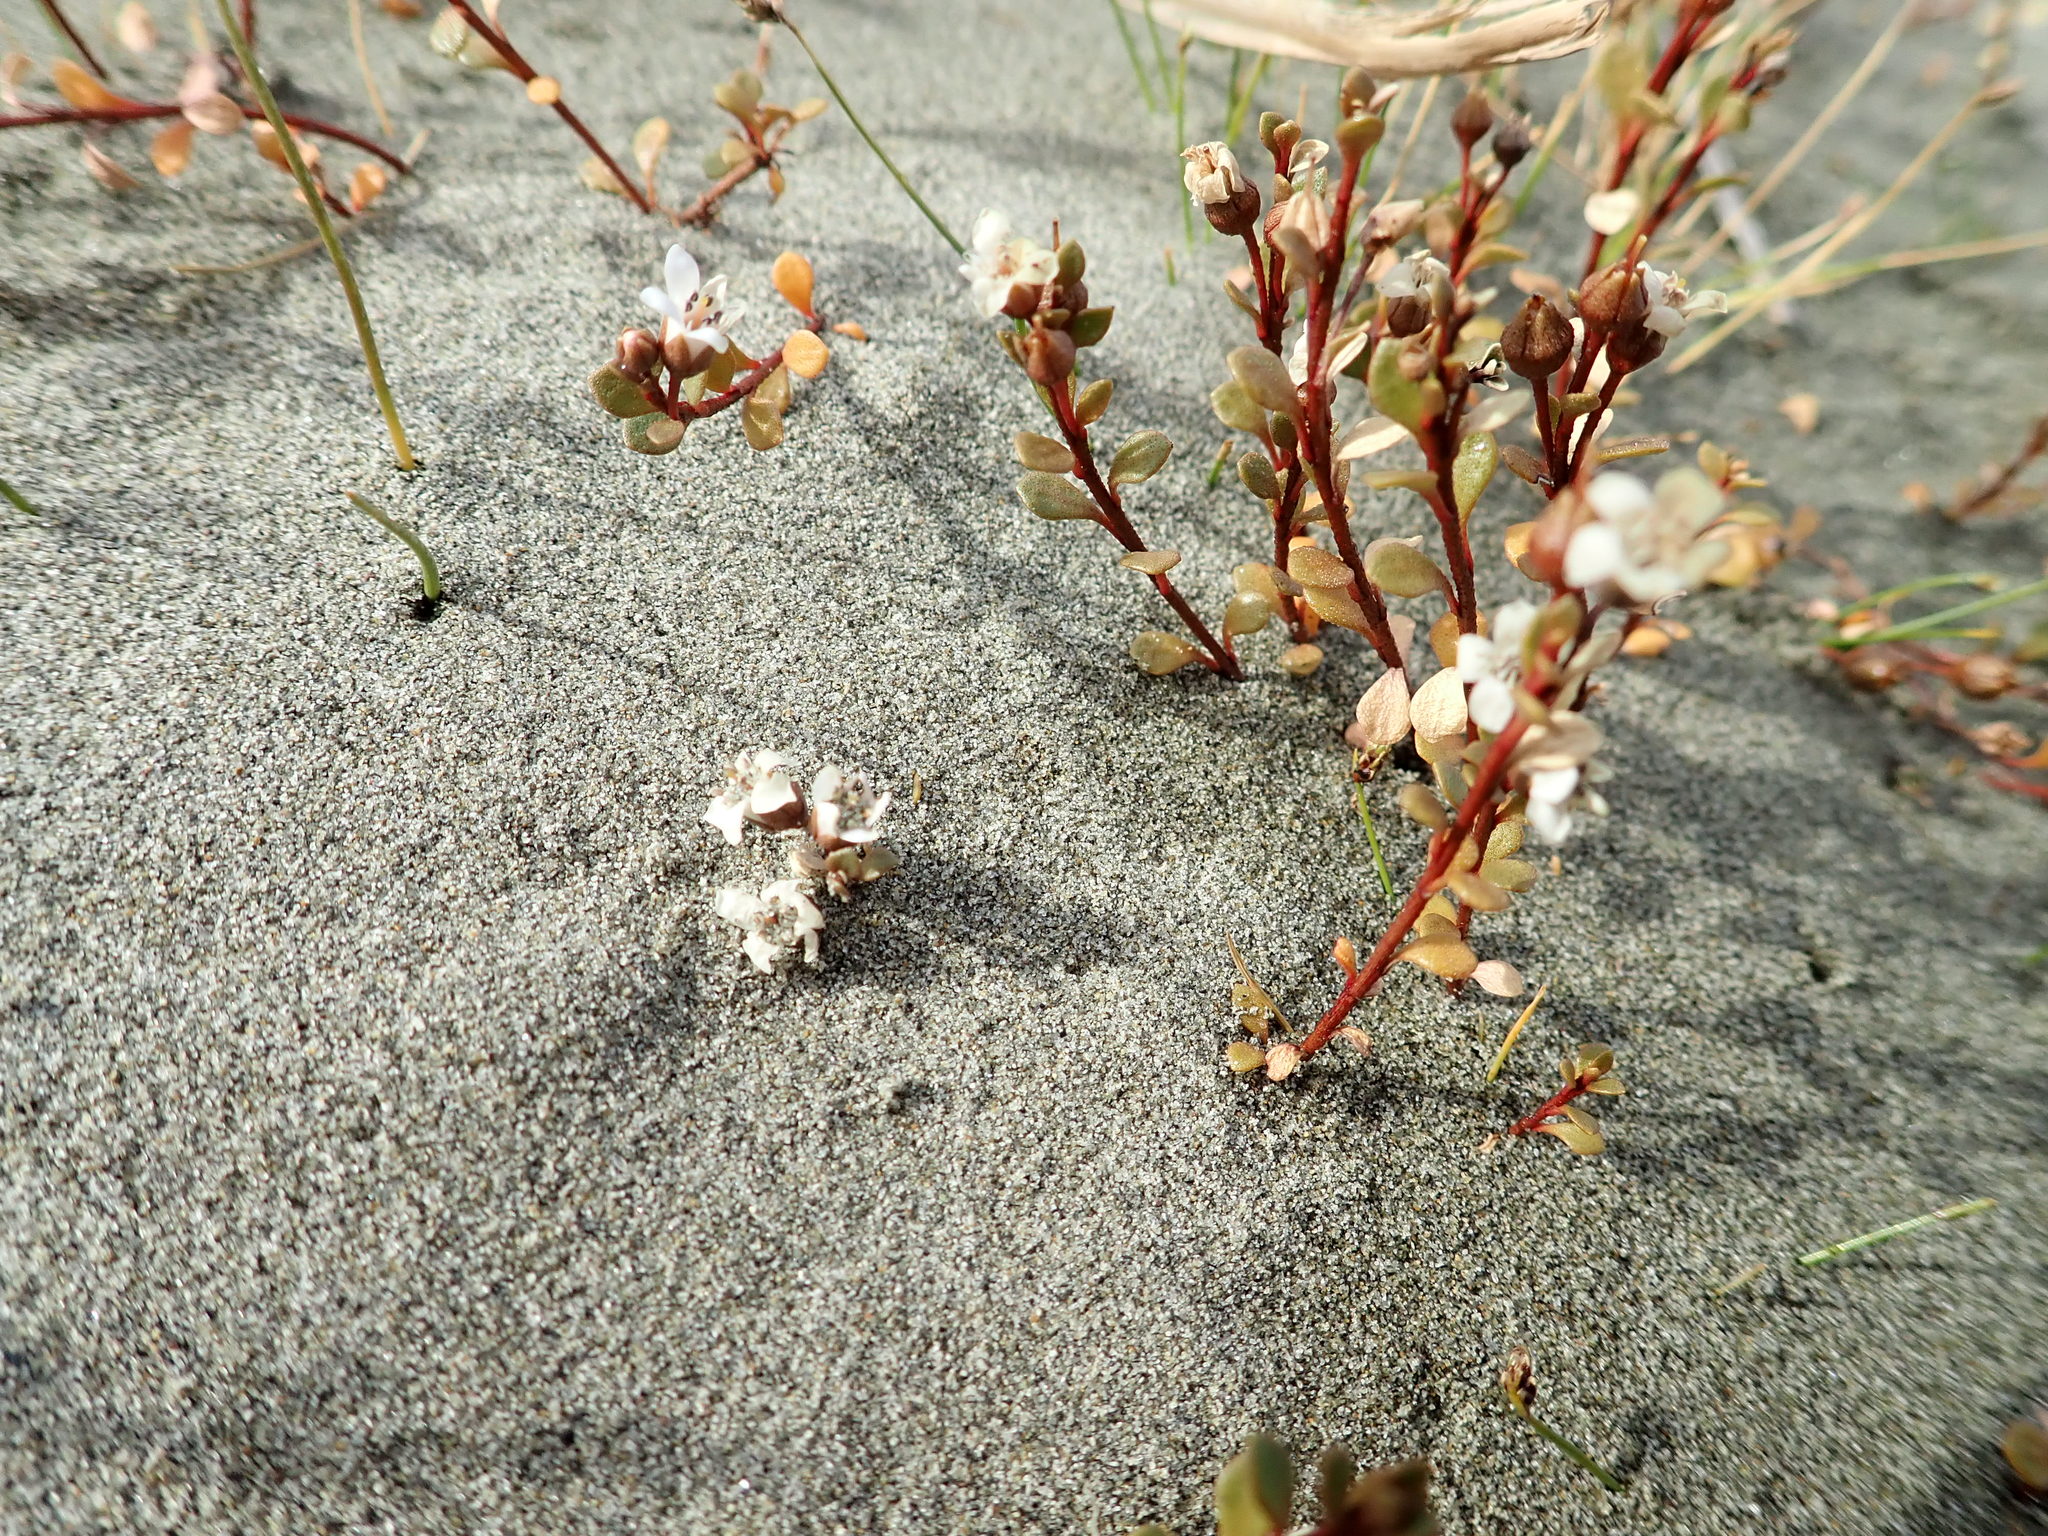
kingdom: Plantae
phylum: Tracheophyta
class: Magnoliopsida
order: Ericales
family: Primulaceae
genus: Samolus
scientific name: Samolus repens
